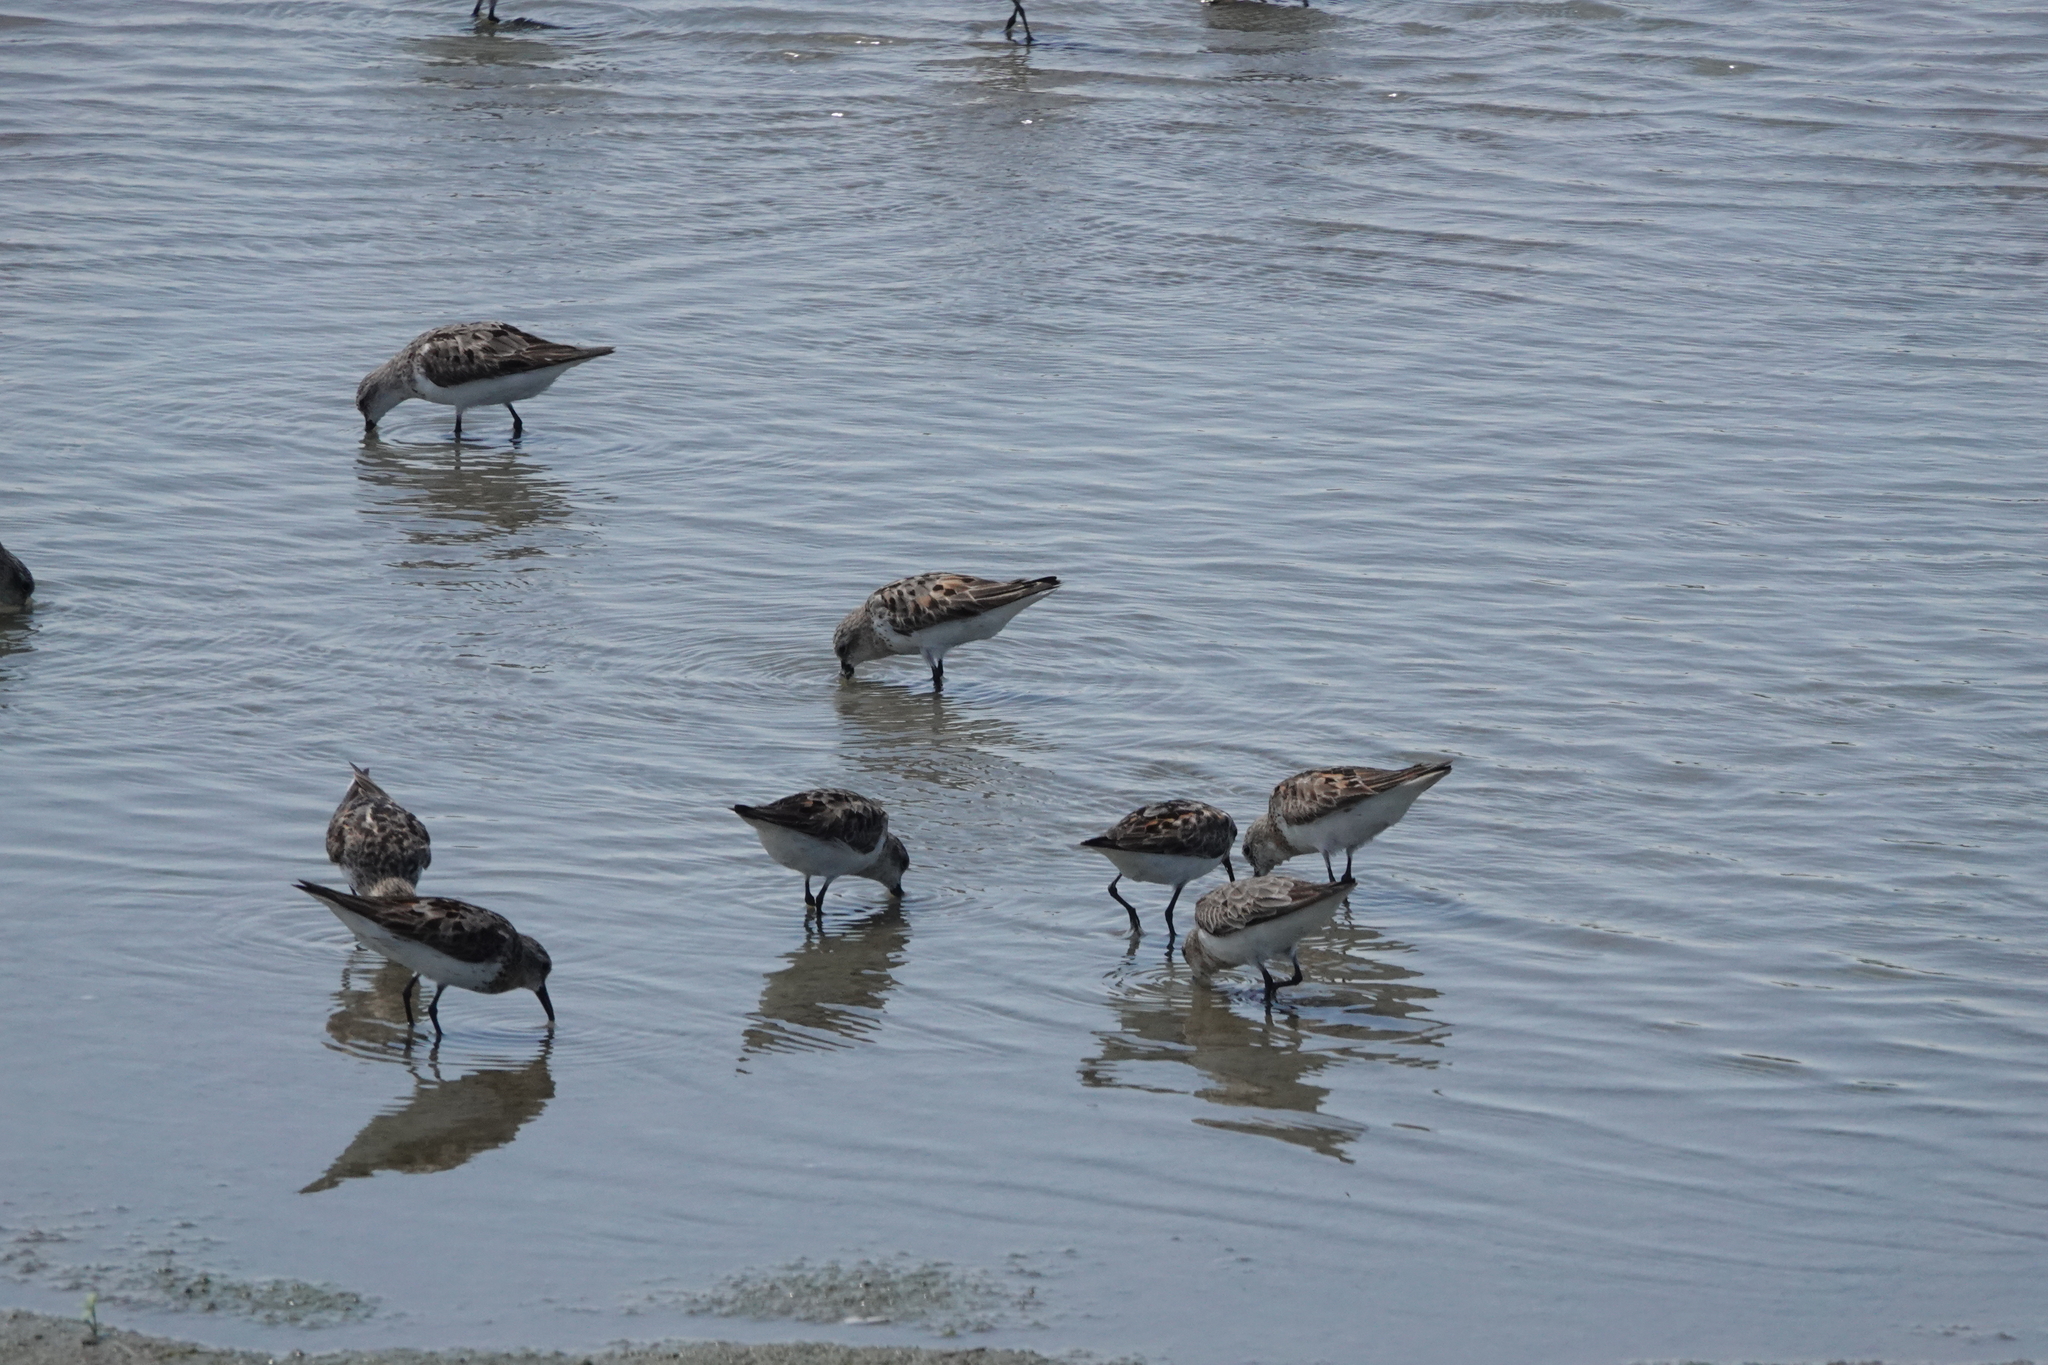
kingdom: Animalia
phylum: Chordata
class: Aves
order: Charadriiformes
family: Scolopacidae
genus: Calidris
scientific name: Calidris ruficollis
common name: Red-necked stint
